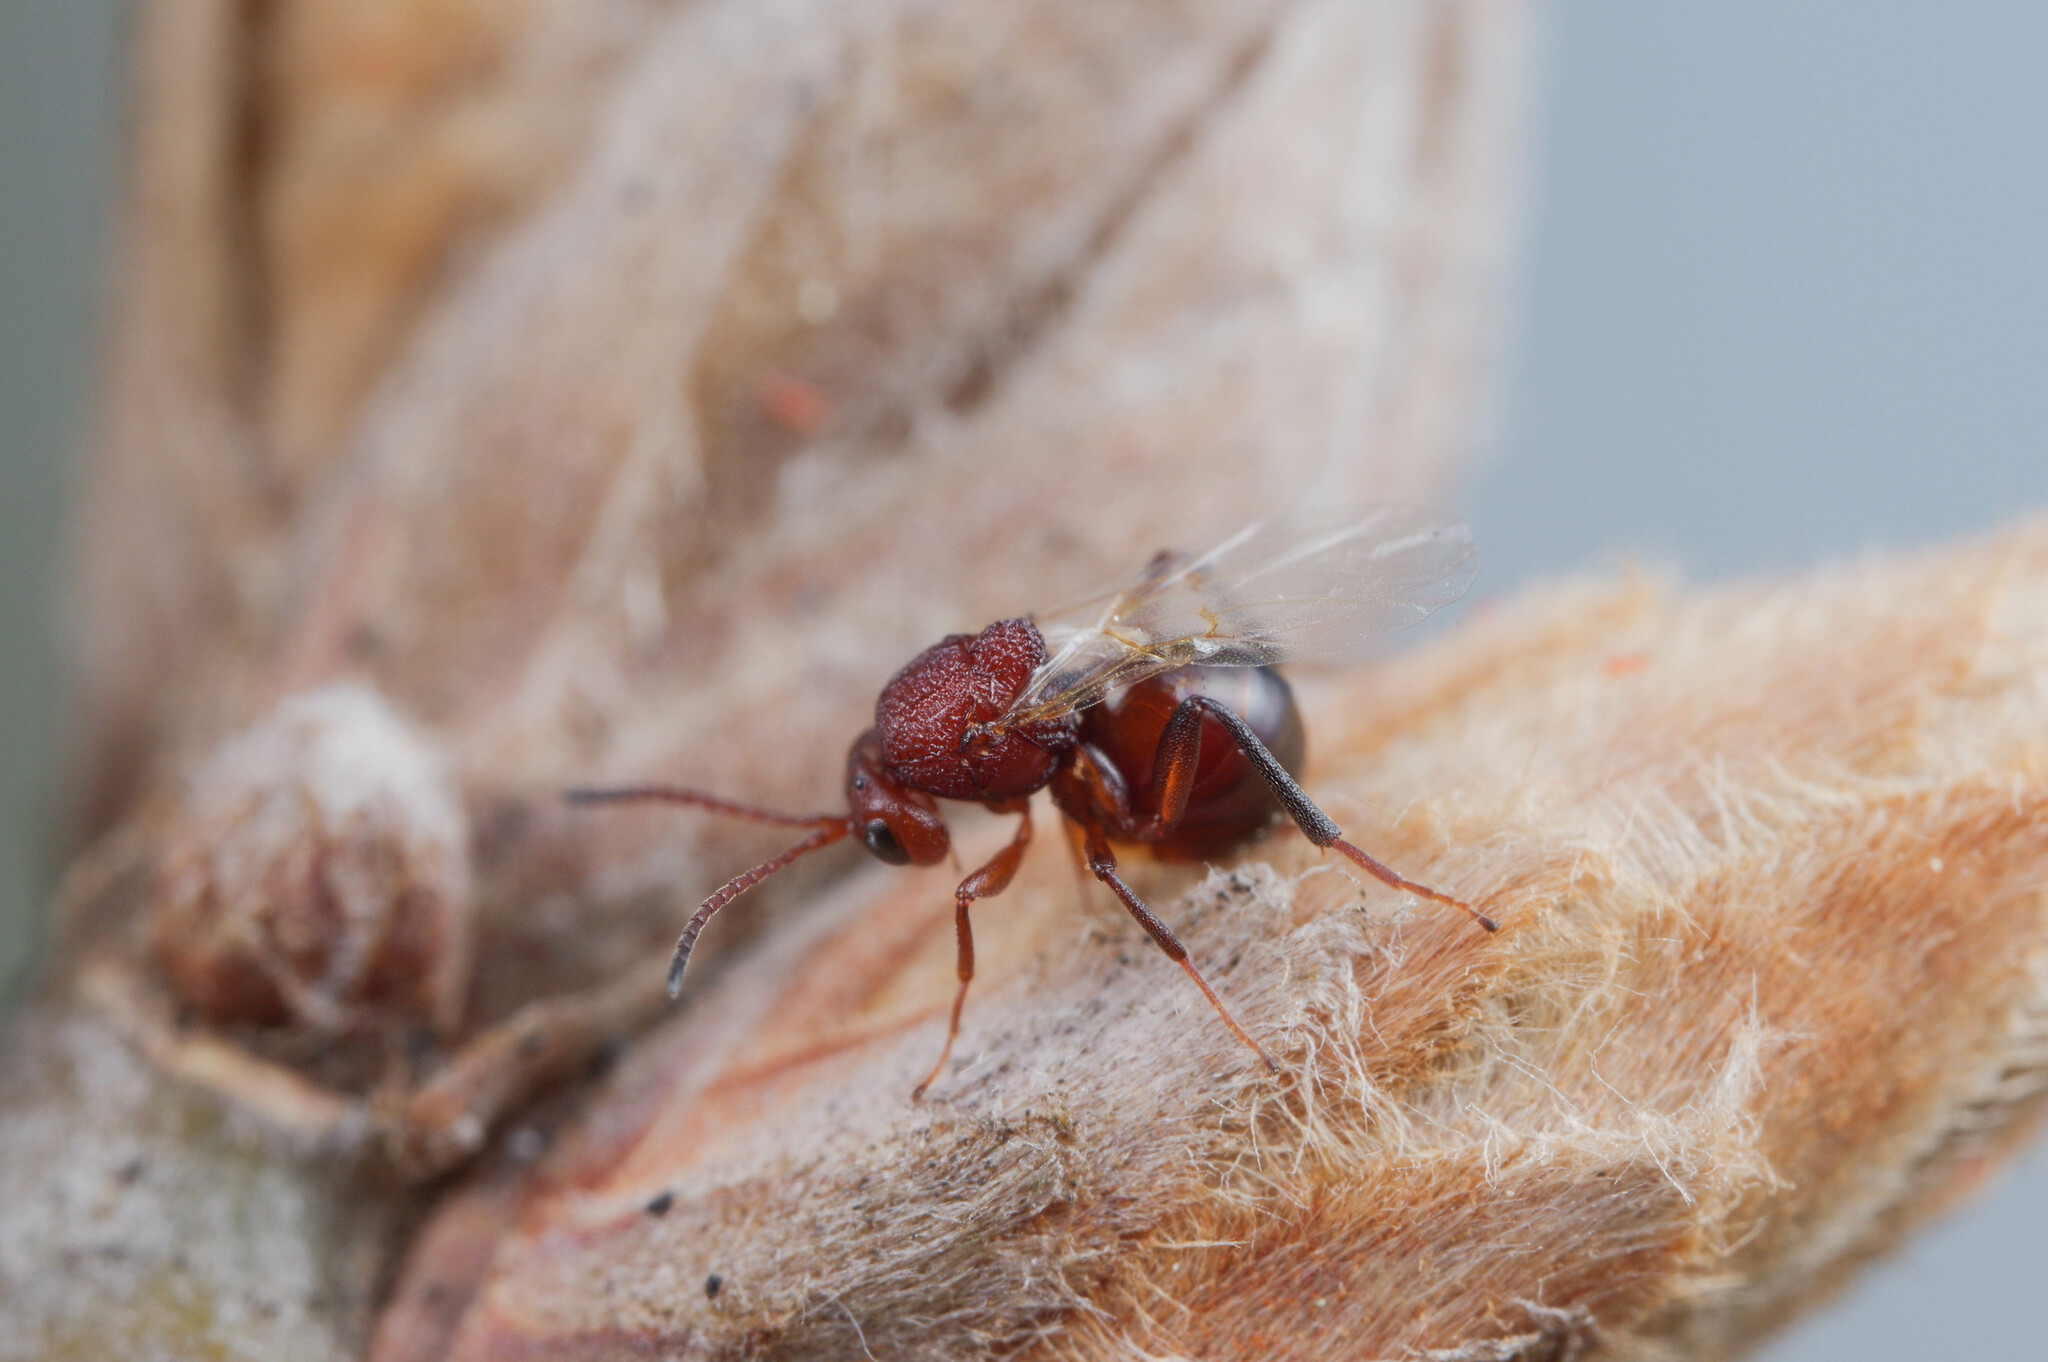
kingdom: Animalia
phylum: Arthropoda
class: Insecta
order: Hymenoptera
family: Cynipidae
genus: Melikaiella
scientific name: Melikaiella
